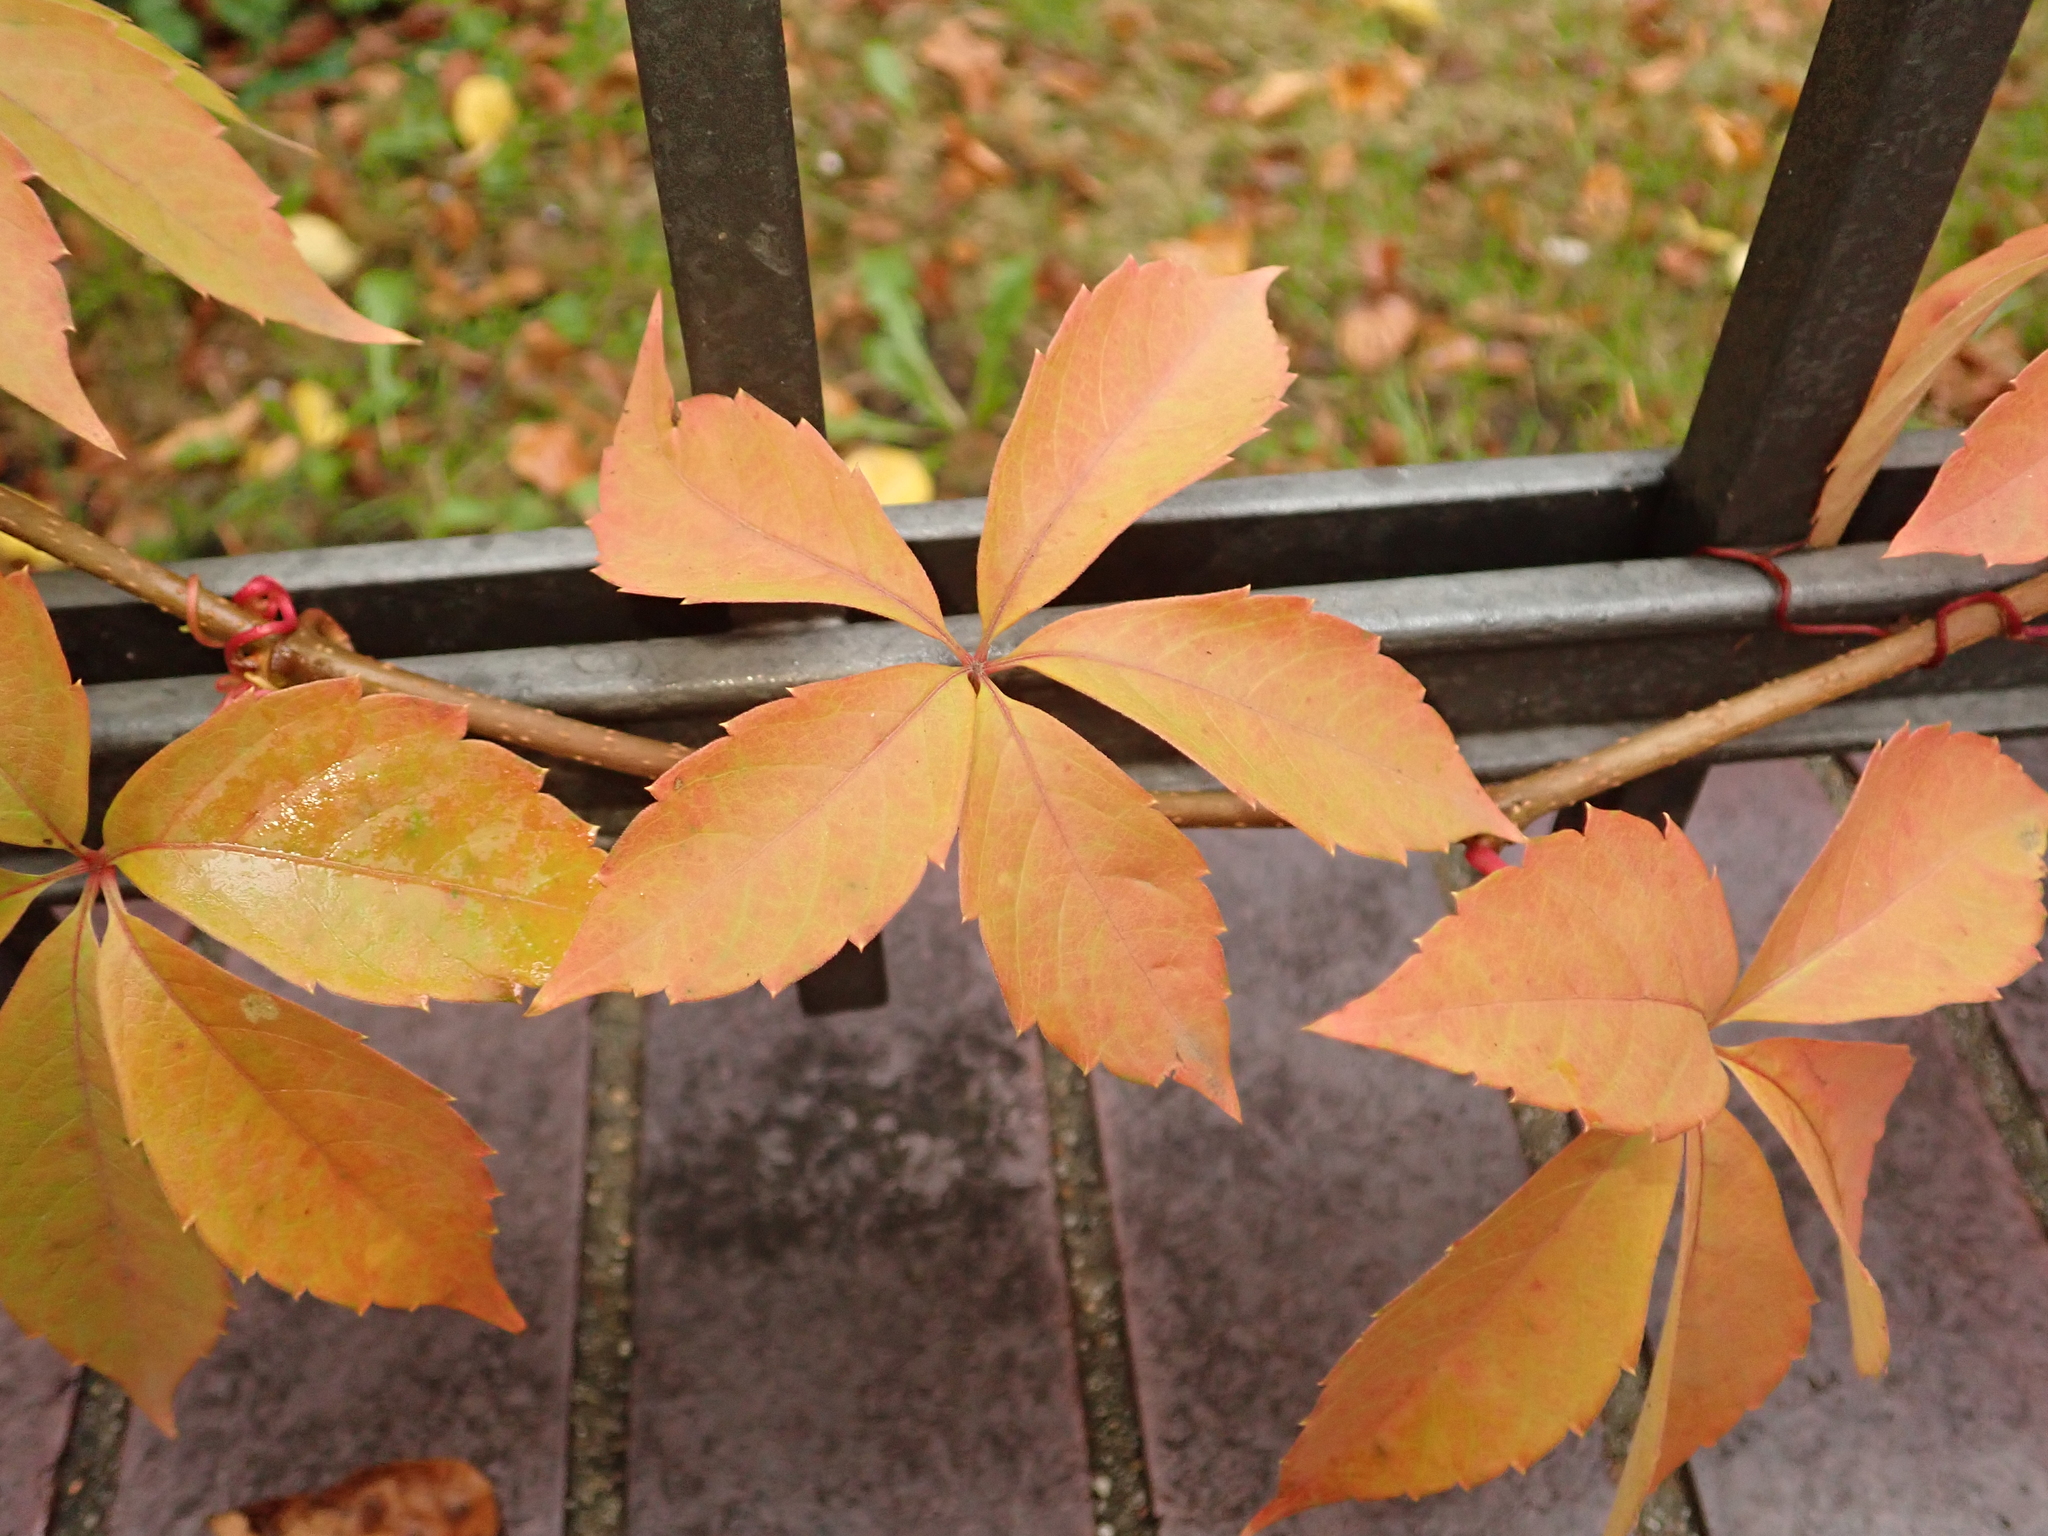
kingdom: Plantae
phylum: Tracheophyta
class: Magnoliopsida
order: Vitales
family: Vitaceae
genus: Parthenocissus
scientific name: Parthenocissus quinquefolia
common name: Virginia-creeper
